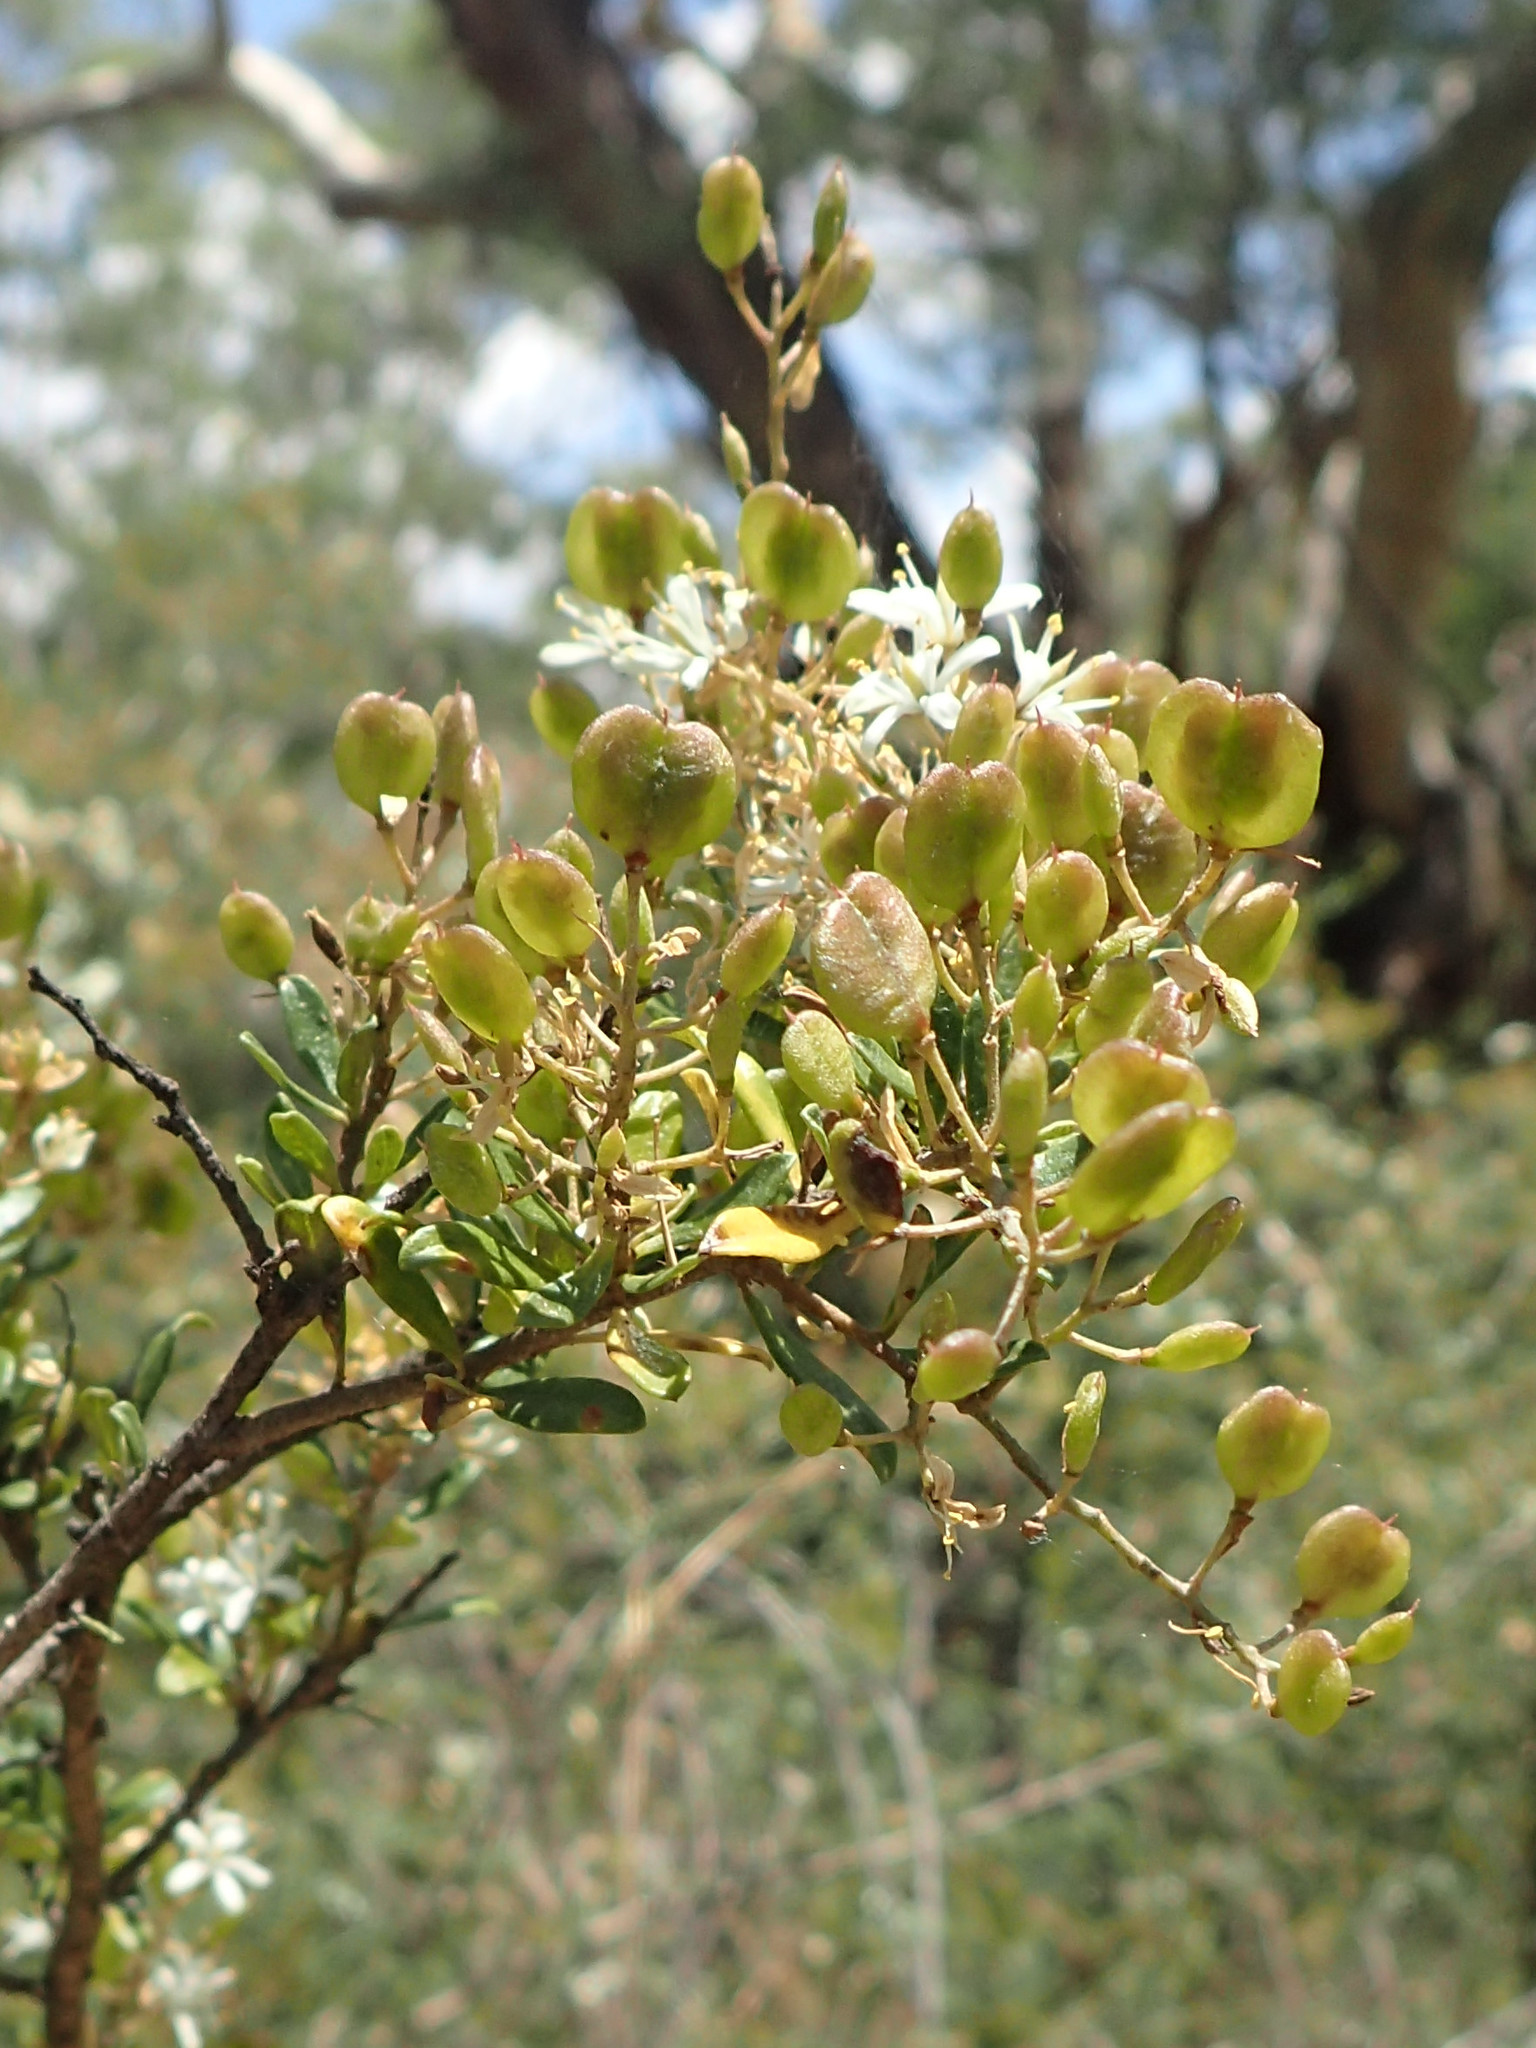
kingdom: Plantae
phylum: Tracheophyta
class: Magnoliopsida
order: Apiales
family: Pittosporaceae
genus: Bursaria
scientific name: Bursaria spinosa
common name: Australian blackthorn
